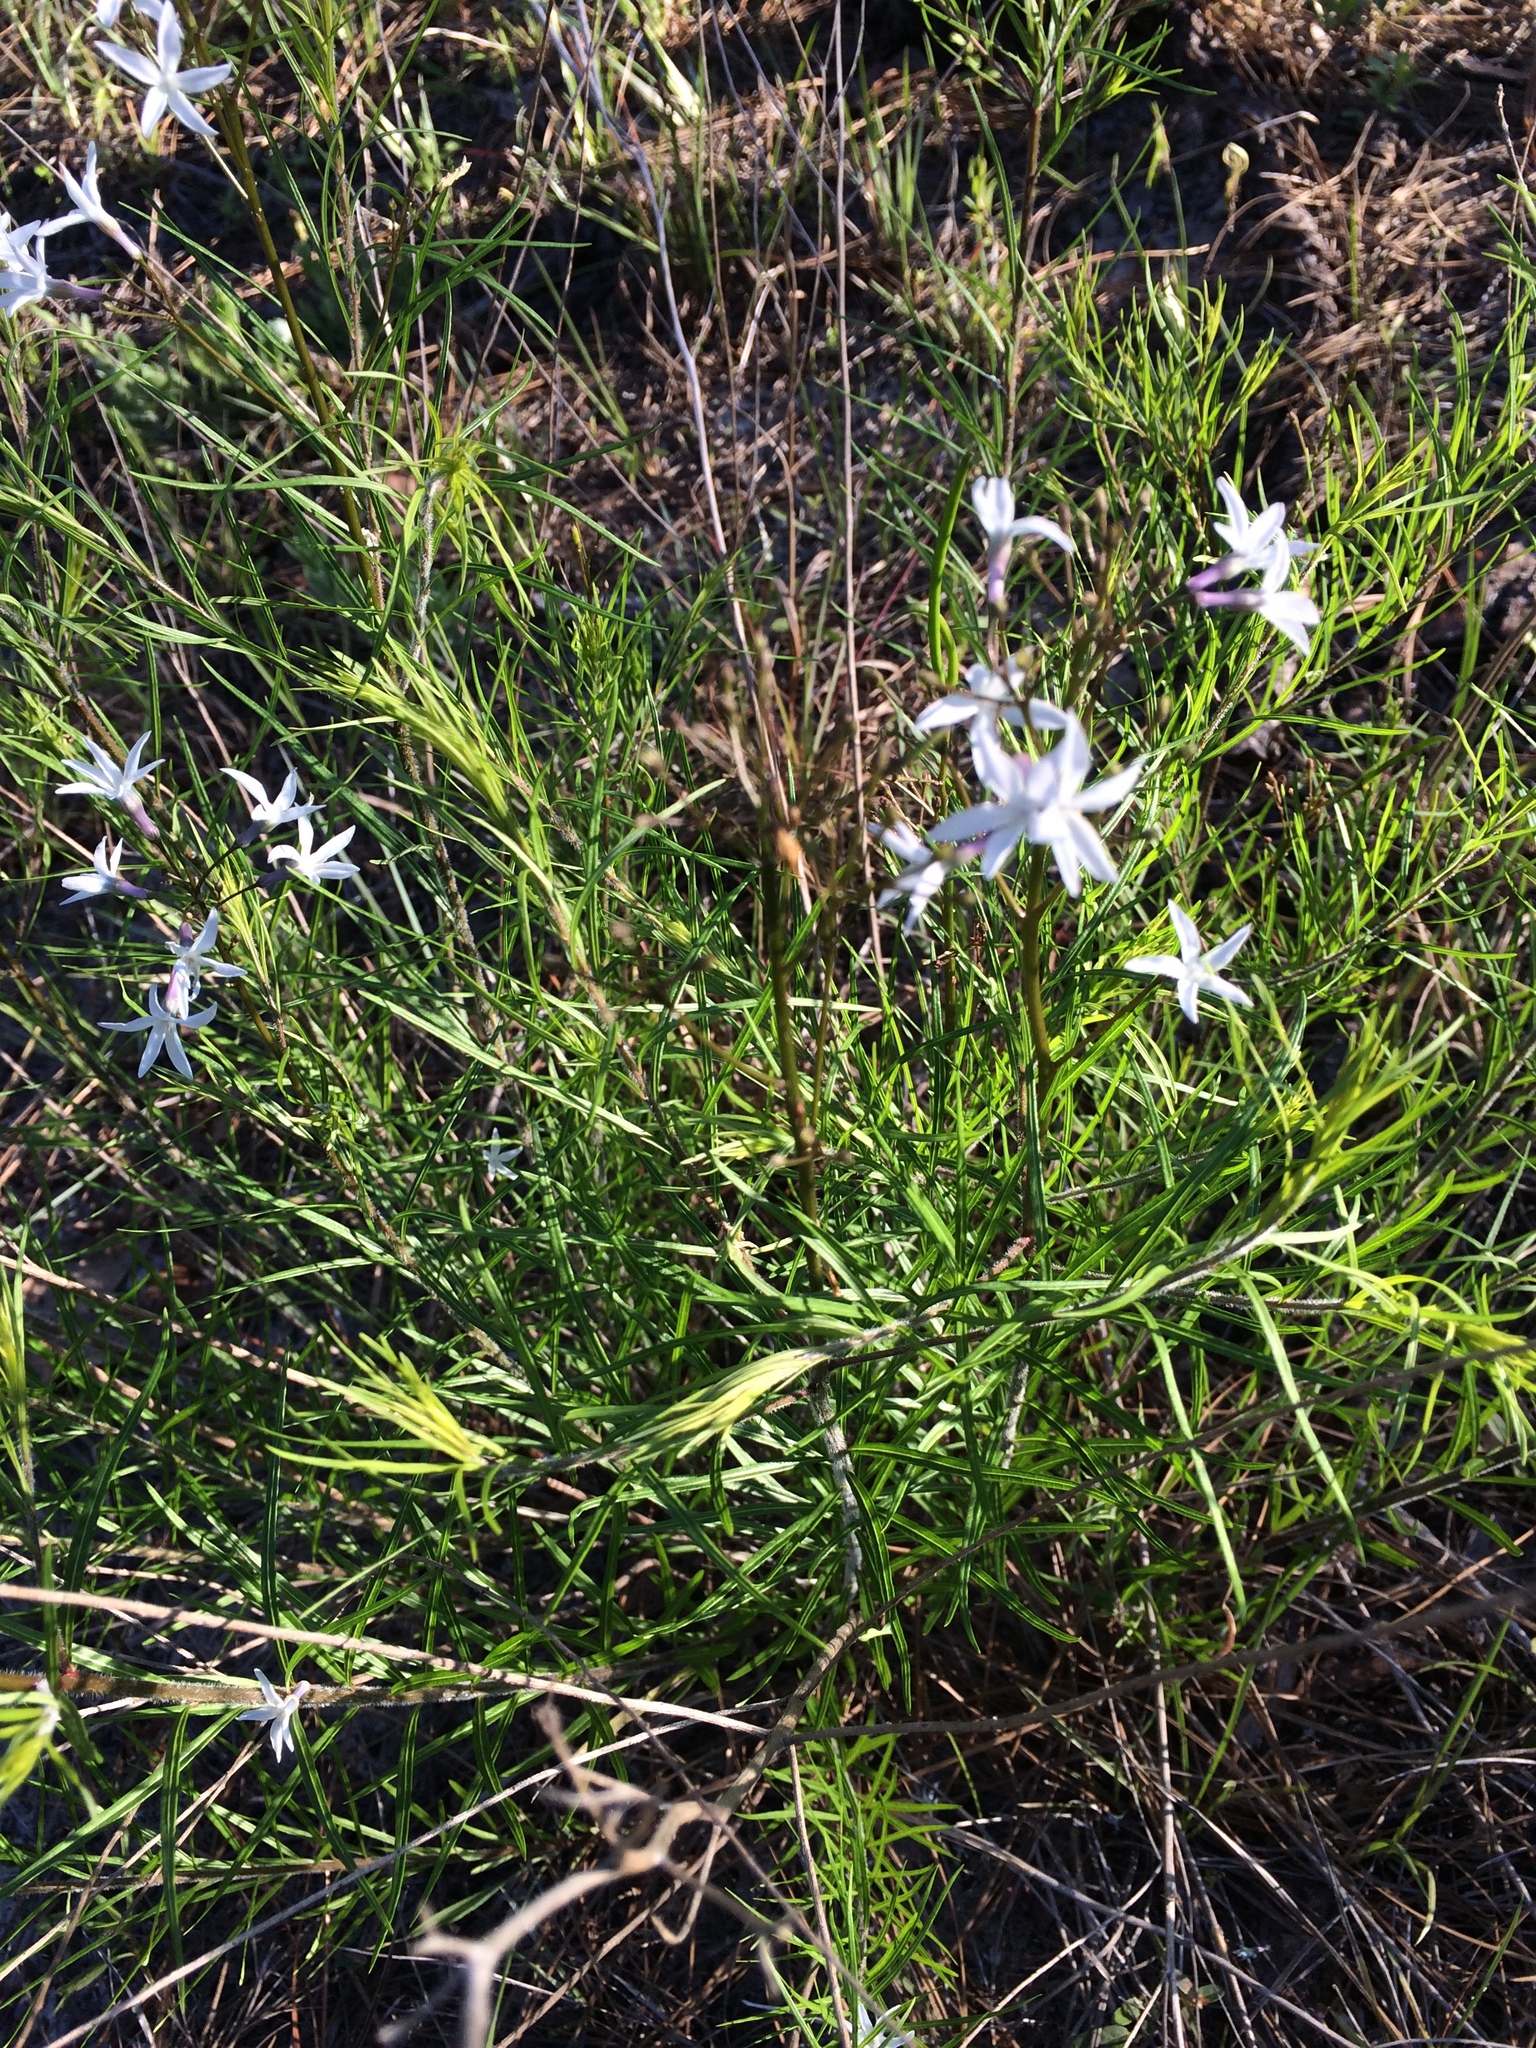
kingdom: Plantae
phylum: Tracheophyta
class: Magnoliopsida
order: Gentianales
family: Apocynaceae
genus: Amsonia
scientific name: Amsonia ciliata
